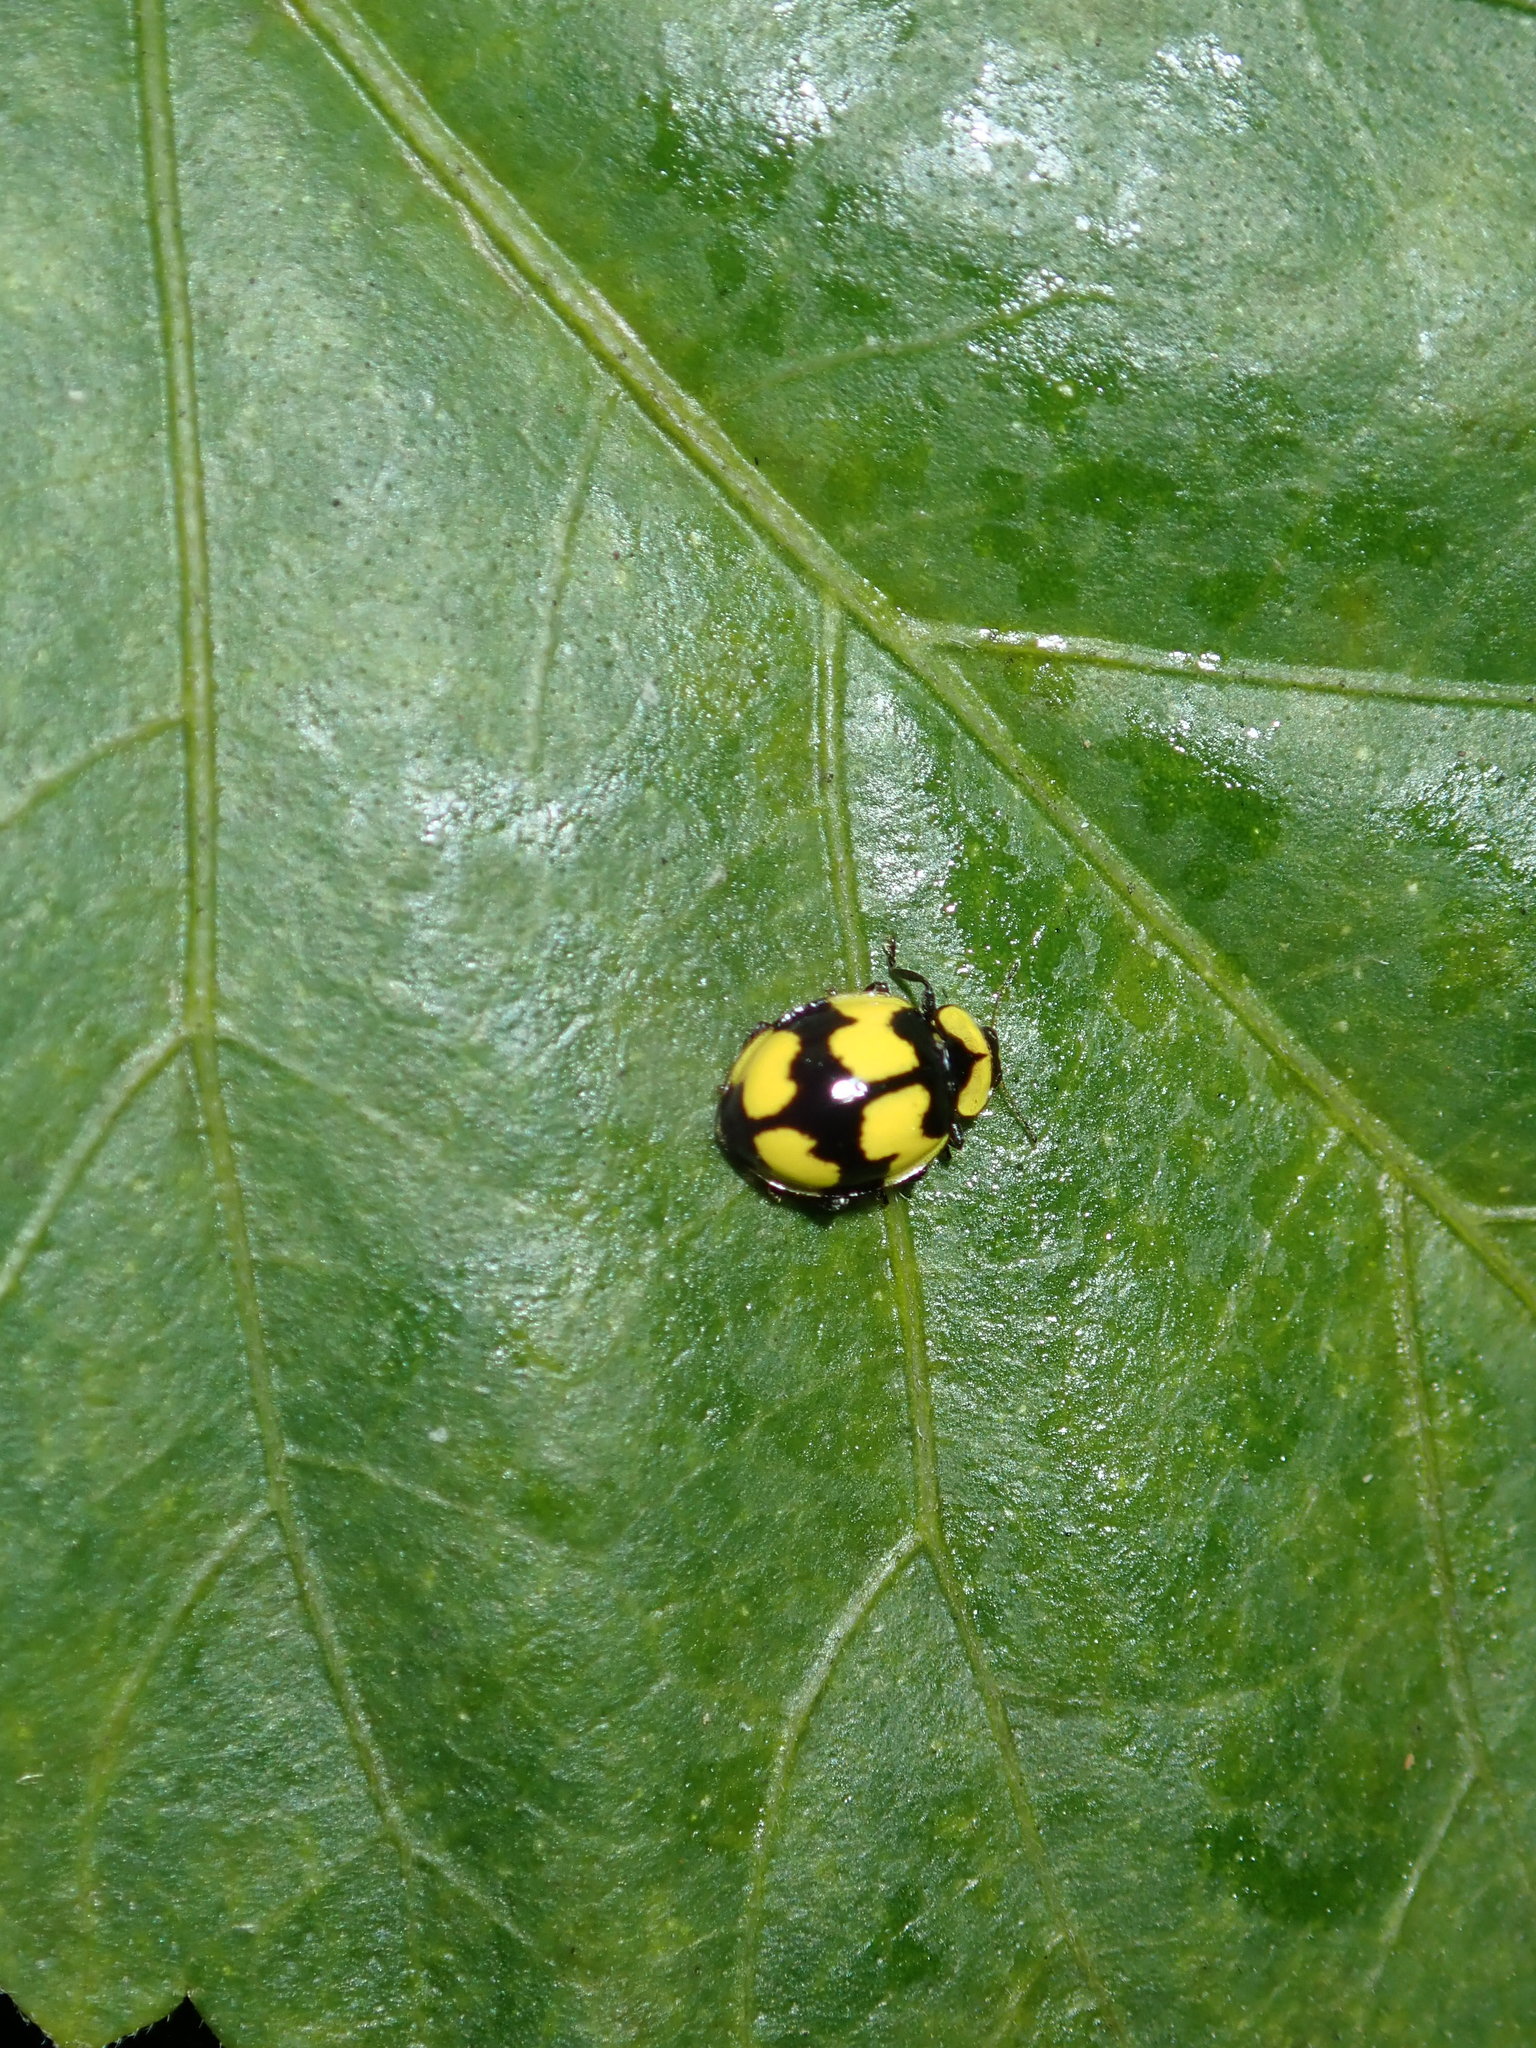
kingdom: Animalia
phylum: Arthropoda
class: Insecta
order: Coleoptera
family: Coccinellidae
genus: Illeis
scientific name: Illeis galbula
